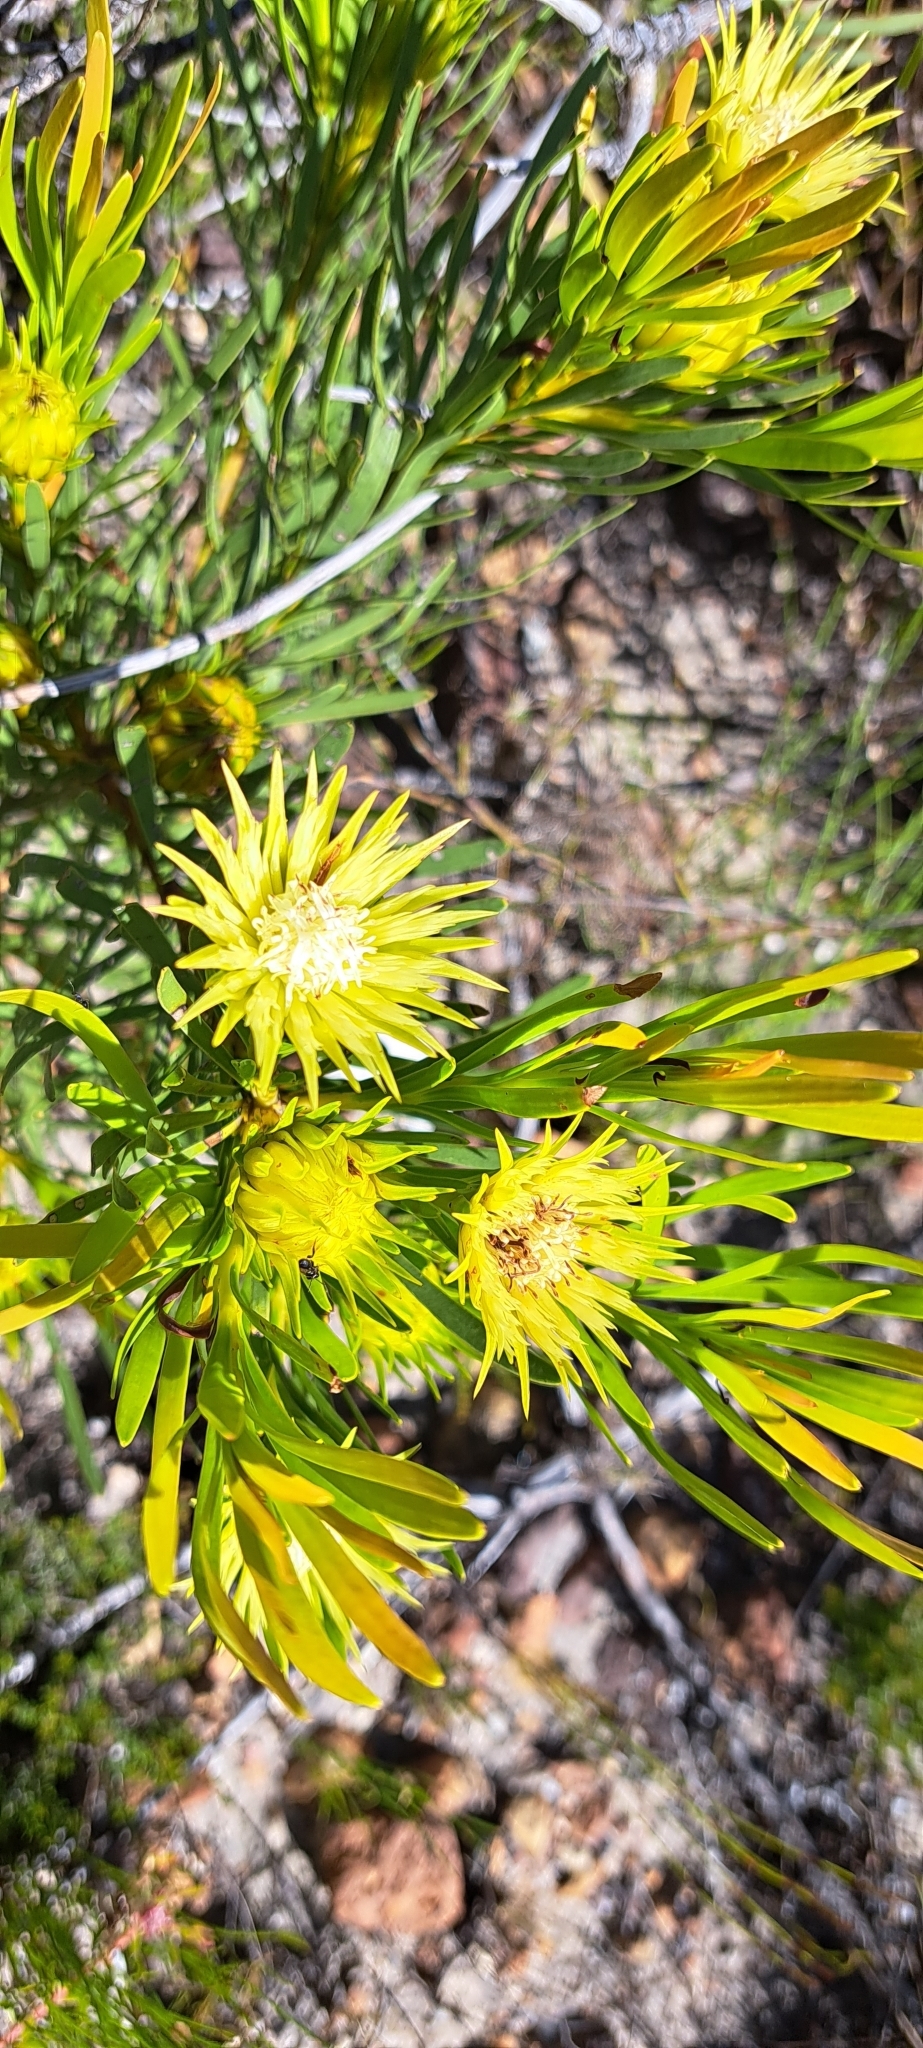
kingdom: Plantae
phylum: Tracheophyta
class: Magnoliopsida
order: Proteales
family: Proteaceae
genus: Aulax
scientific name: Aulax umbellata
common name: Broad-leaf featherbush
